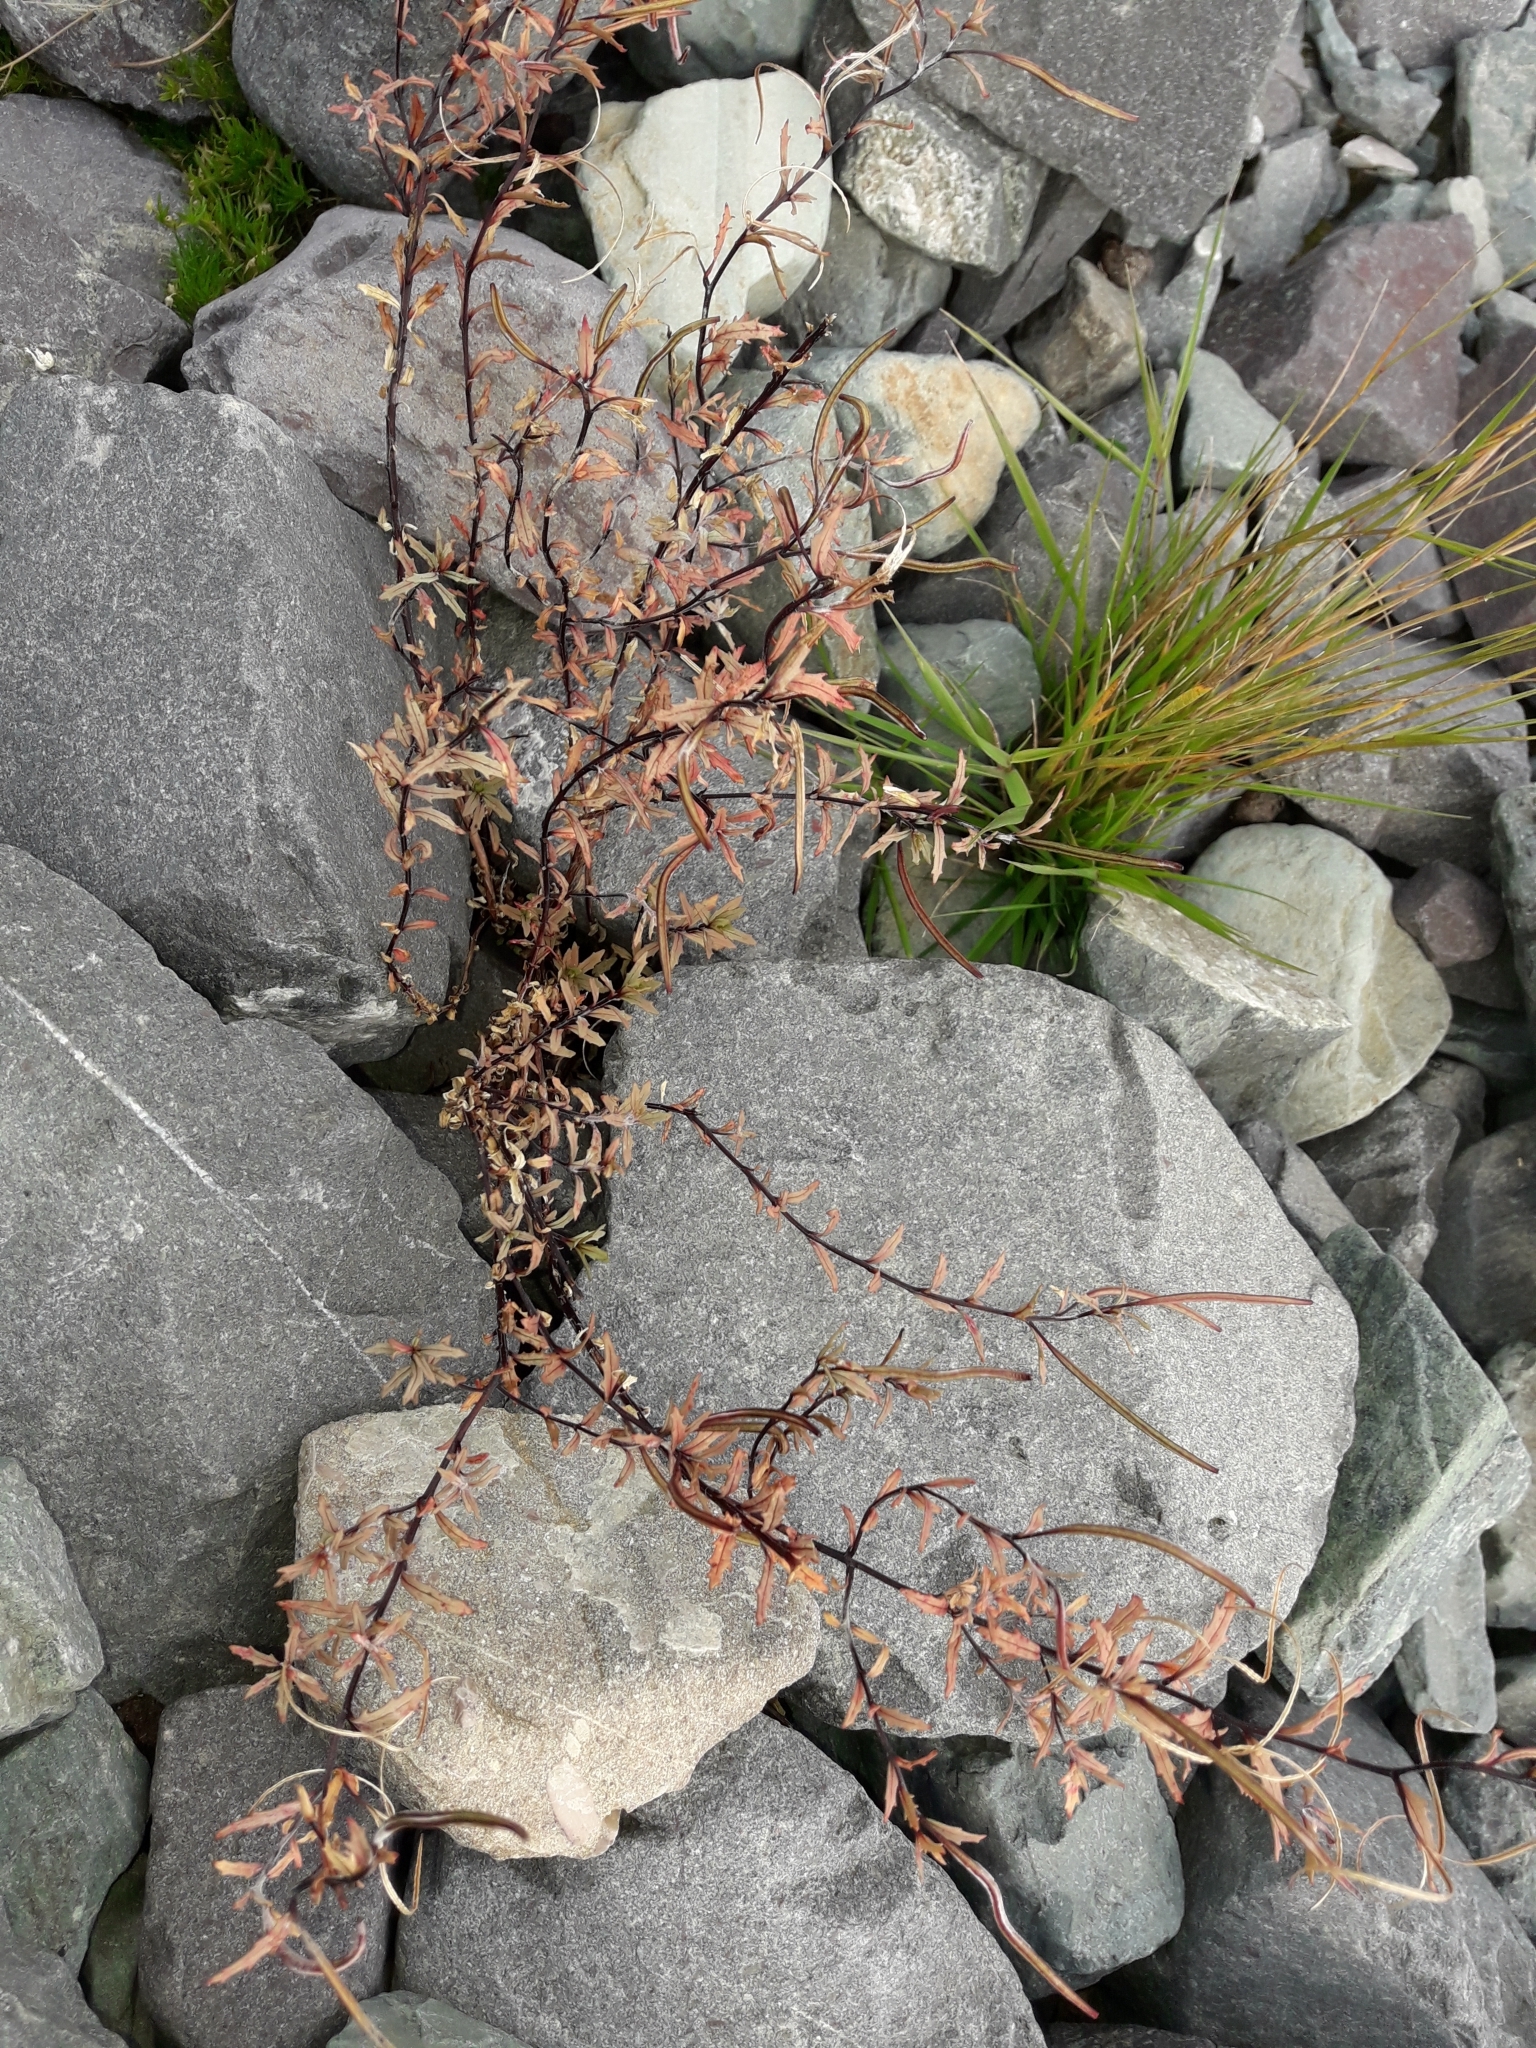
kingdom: Plantae
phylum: Tracheophyta
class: Magnoliopsida
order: Myrtales
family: Onagraceae
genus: Epilobium
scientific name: Epilobium melanocaulon
